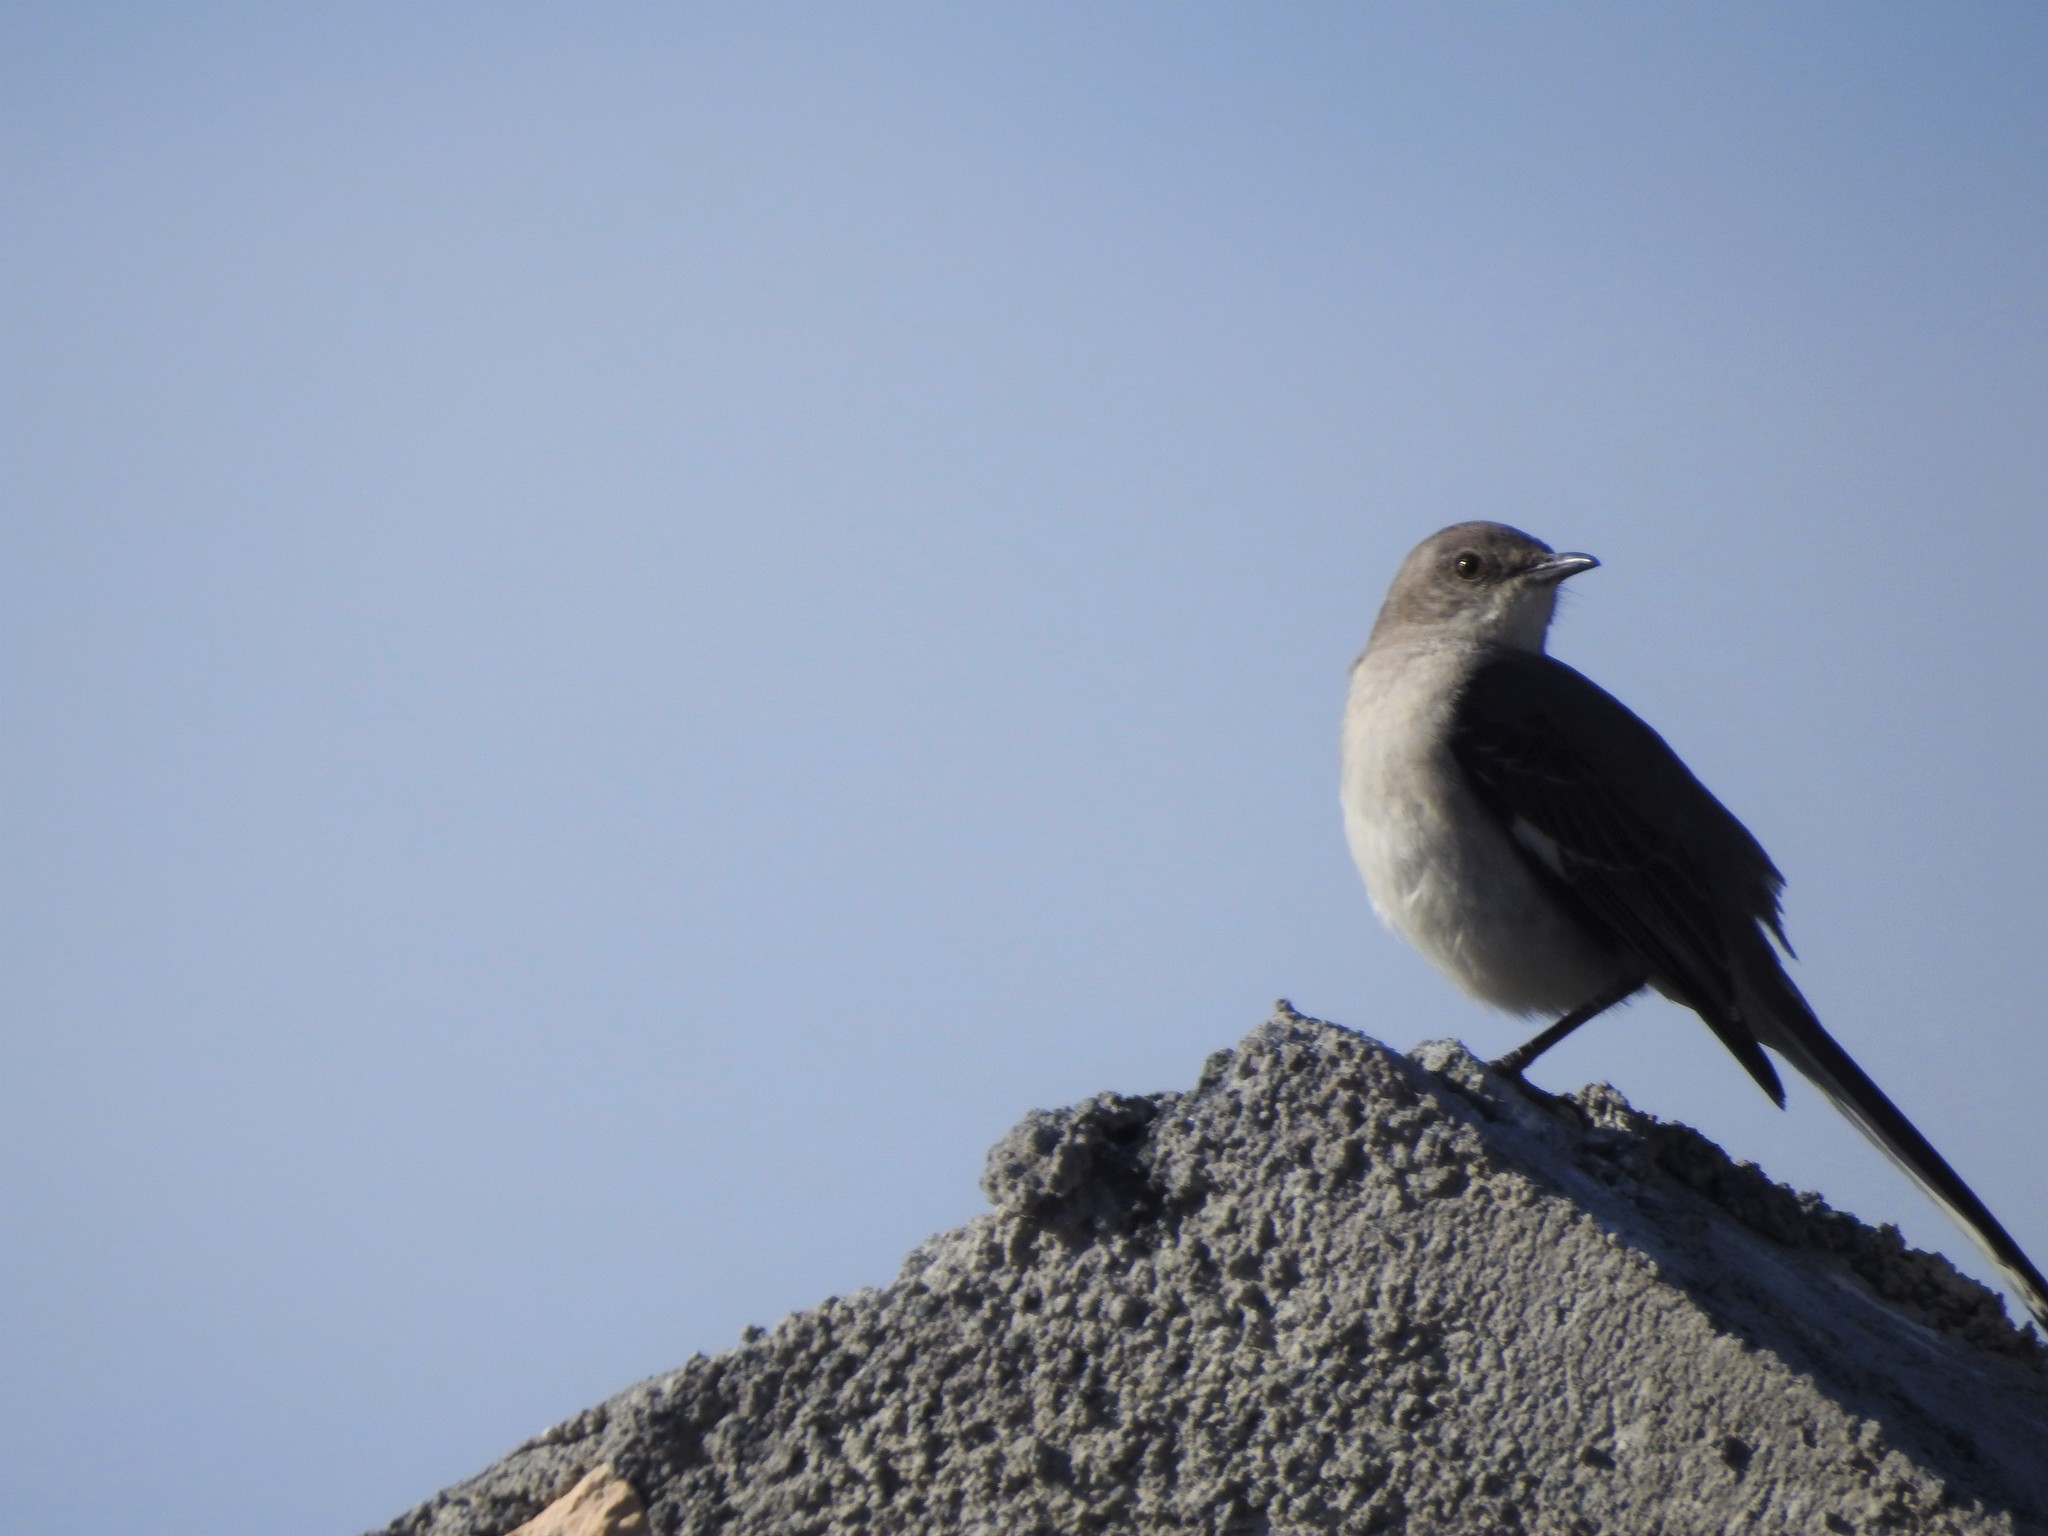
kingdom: Animalia
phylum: Chordata
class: Aves
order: Passeriformes
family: Mimidae
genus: Mimus
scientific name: Mimus polyglottos
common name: Northern mockingbird
